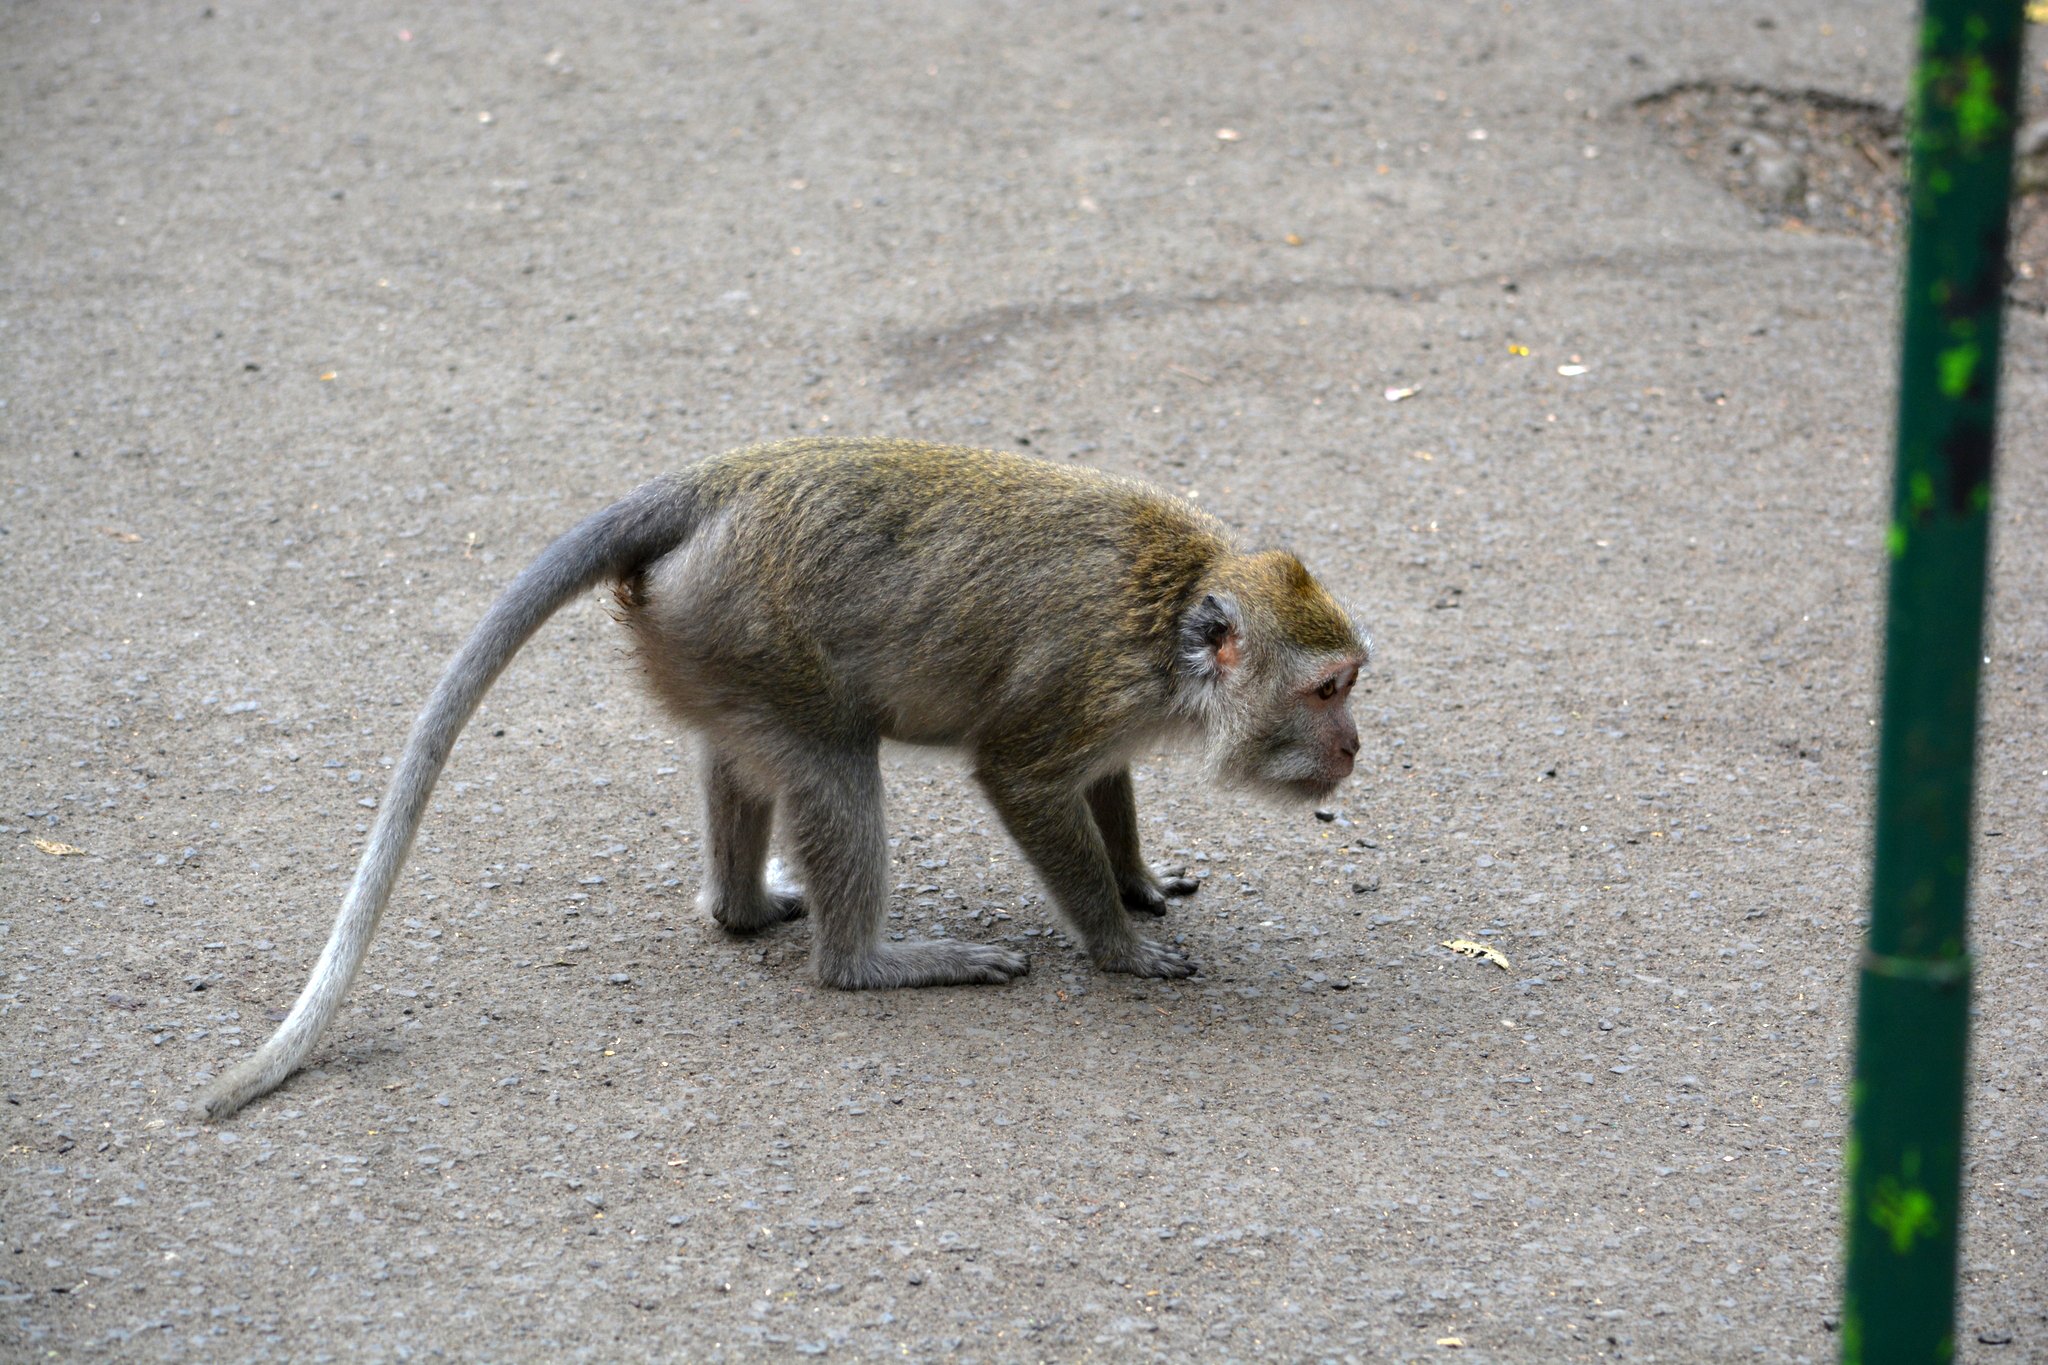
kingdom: Animalia
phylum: Chordata
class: Mammalia
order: Primates
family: Cercopithecidae
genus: Macaca
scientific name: Macaca fascicularis
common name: Crab-eating macaque
